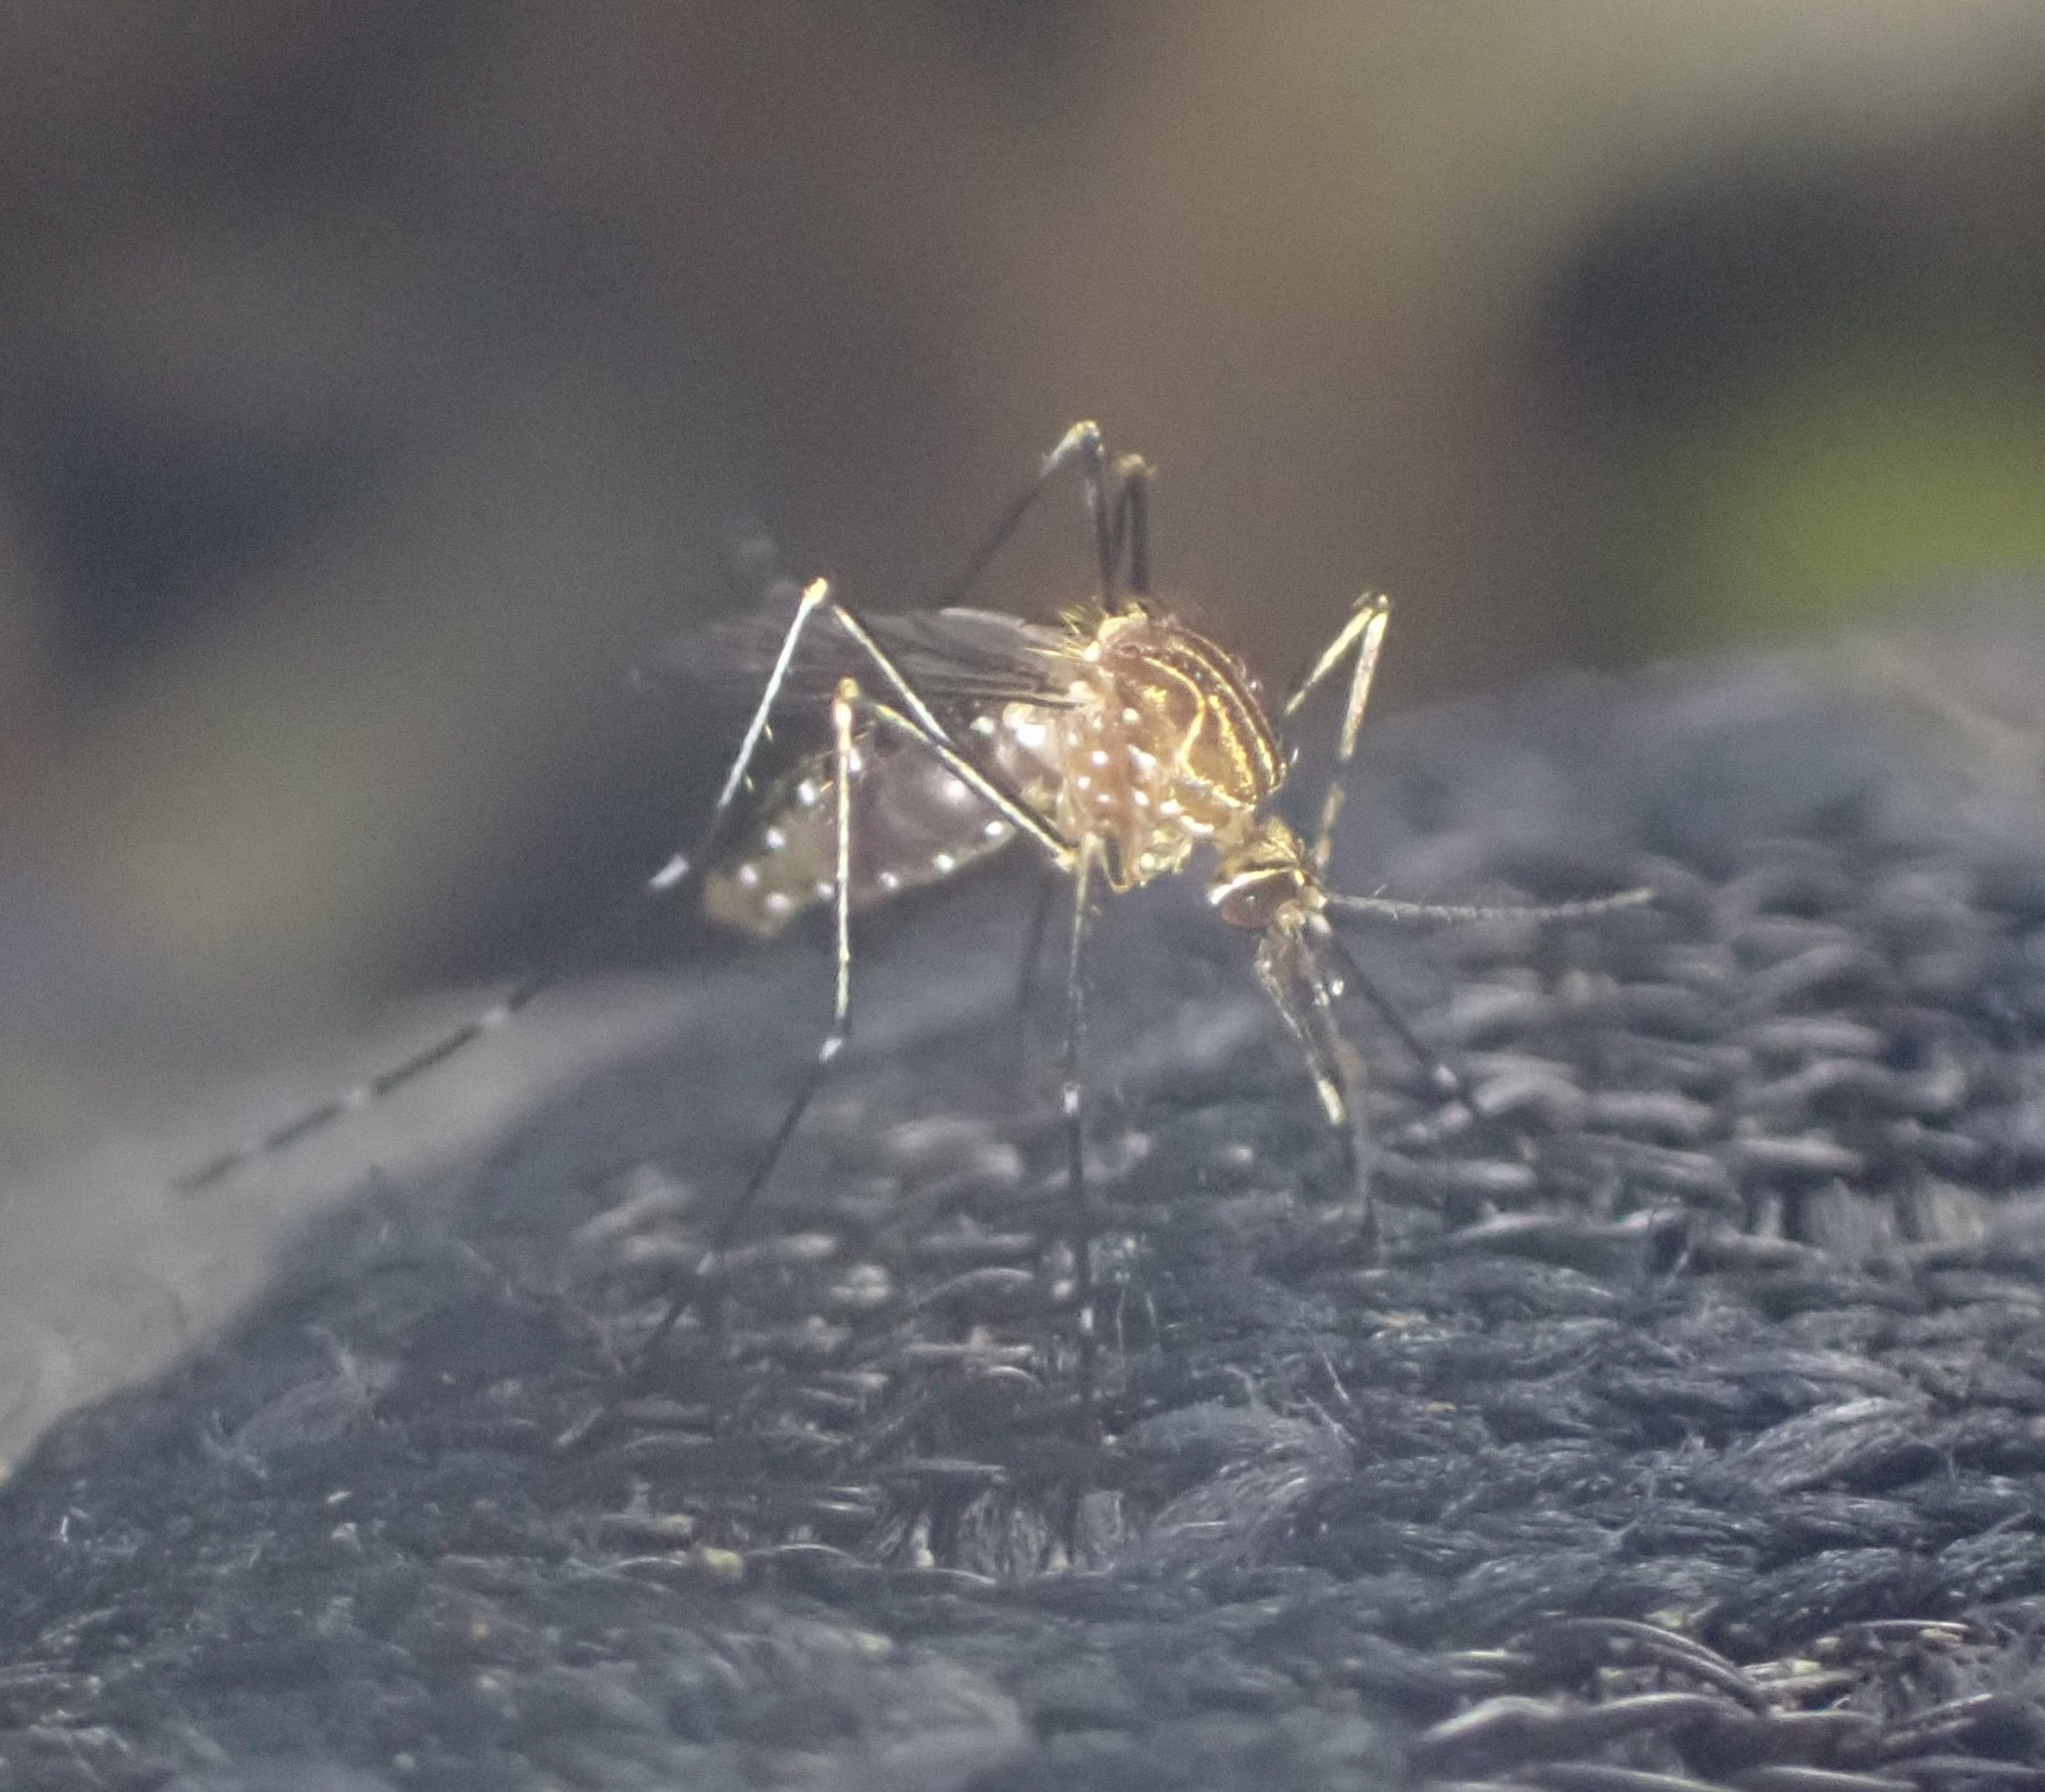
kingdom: Animalia
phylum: Arthropoda
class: Insecta
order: Diptera
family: Culicidae
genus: Aedes
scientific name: Aedes notoscriptus
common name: Australian backyard mosquito
